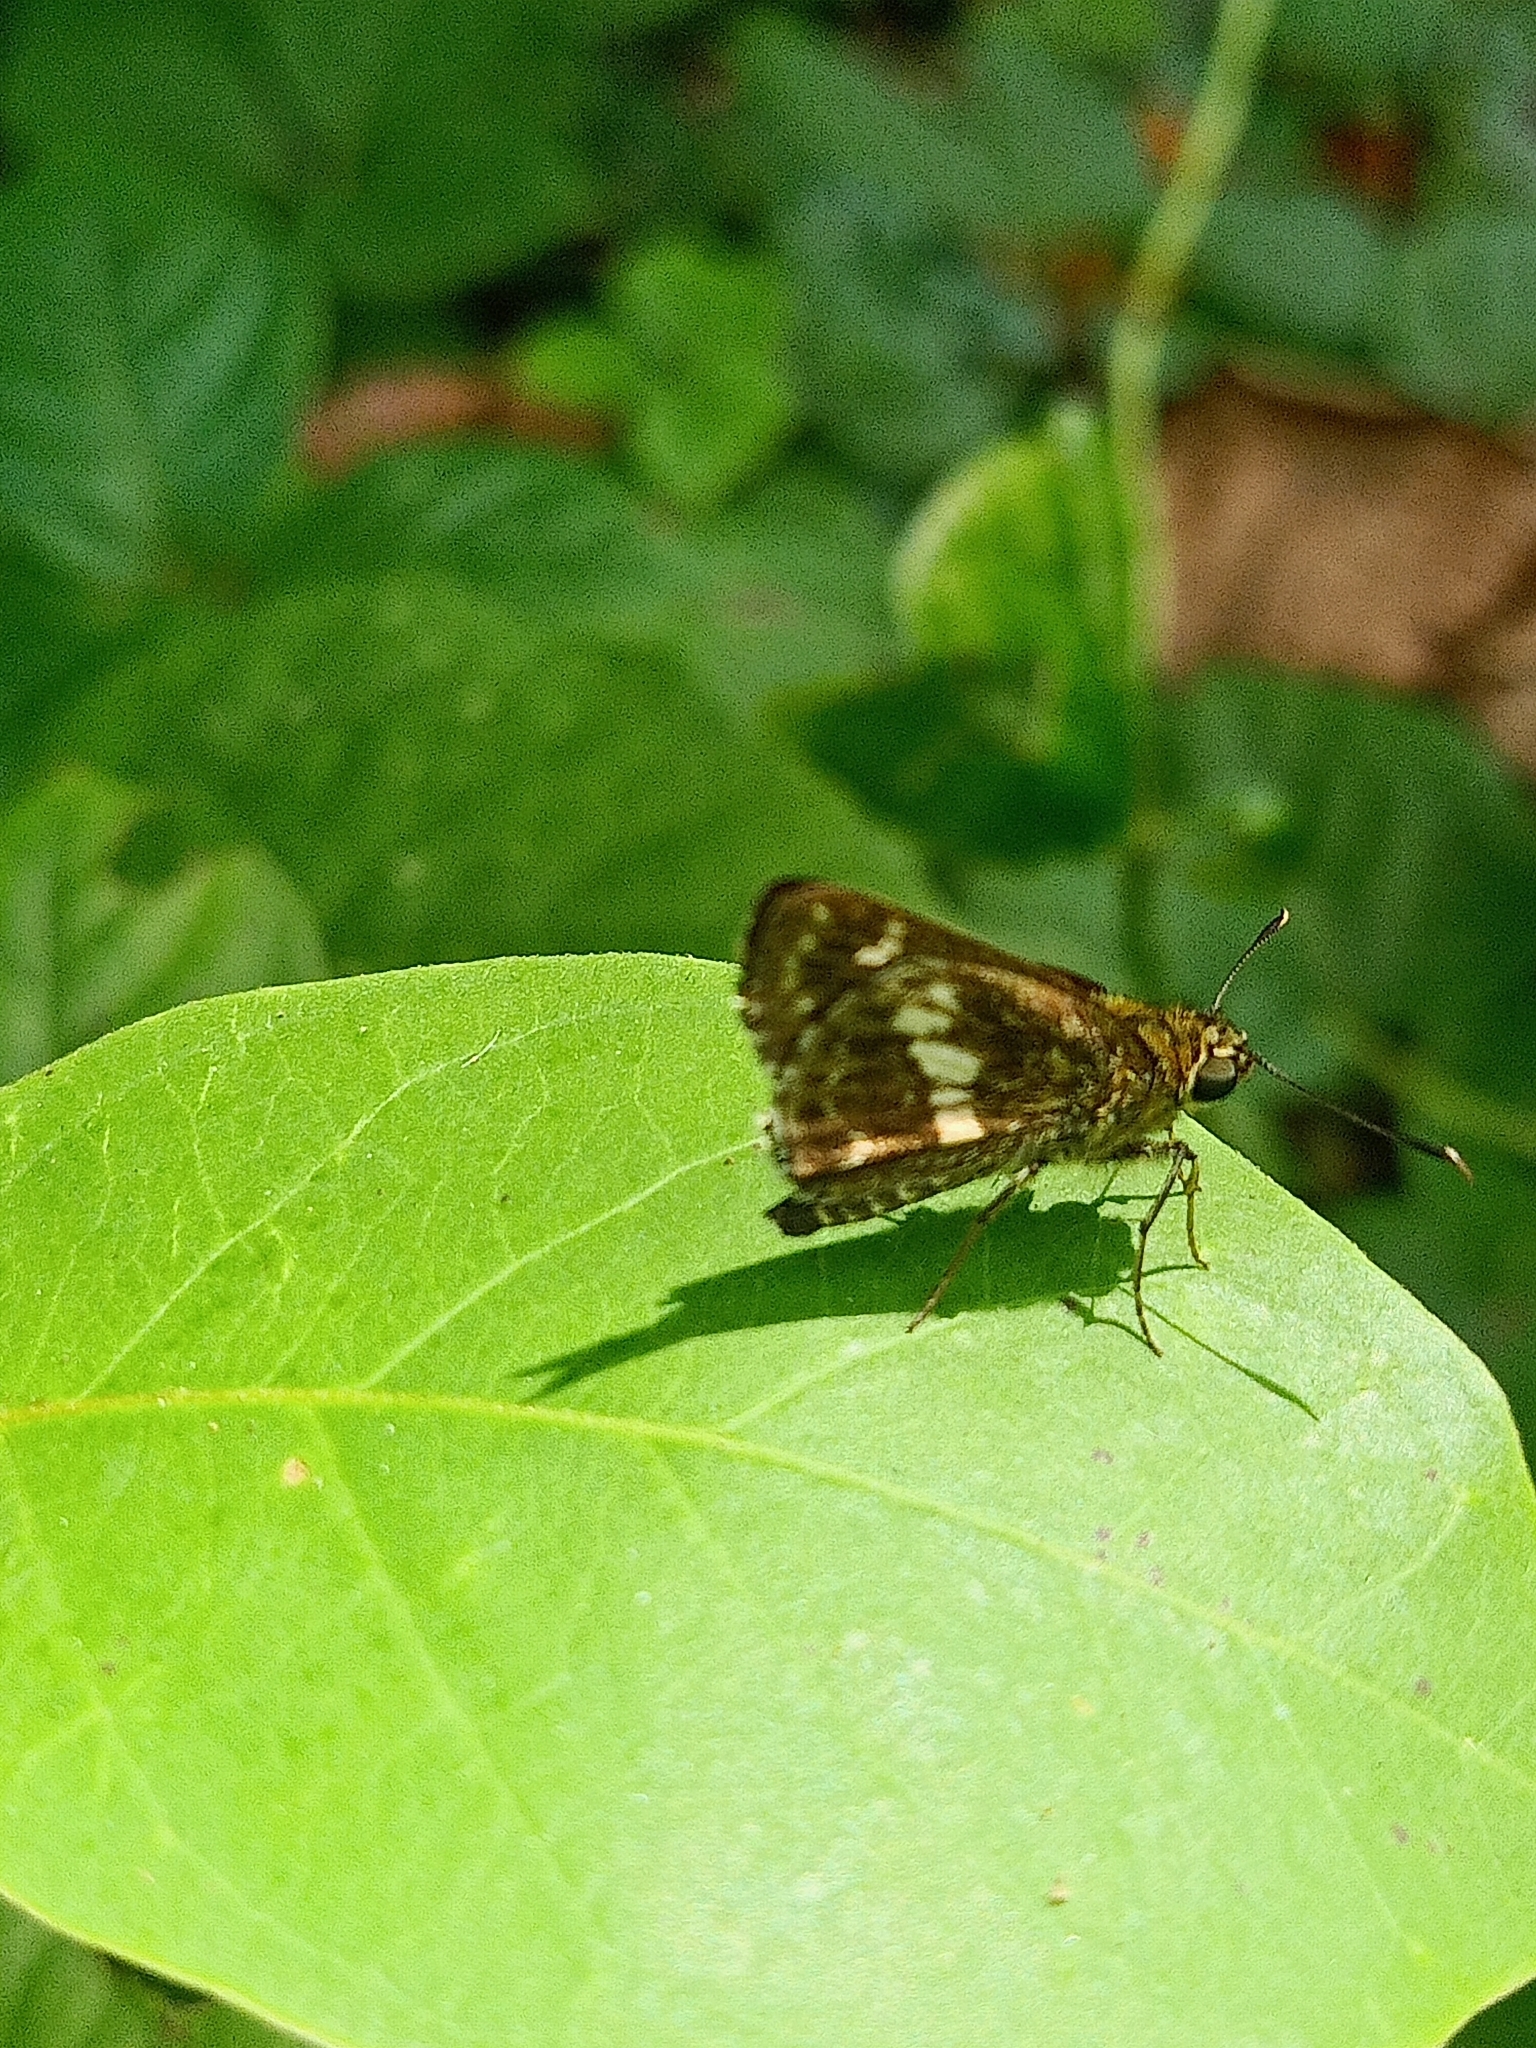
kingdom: Animalia
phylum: Arthropoda
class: Insecta
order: Lepidoptera
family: Hesperiidae
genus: Halpe
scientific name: Halpe porus
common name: Moore's ace
